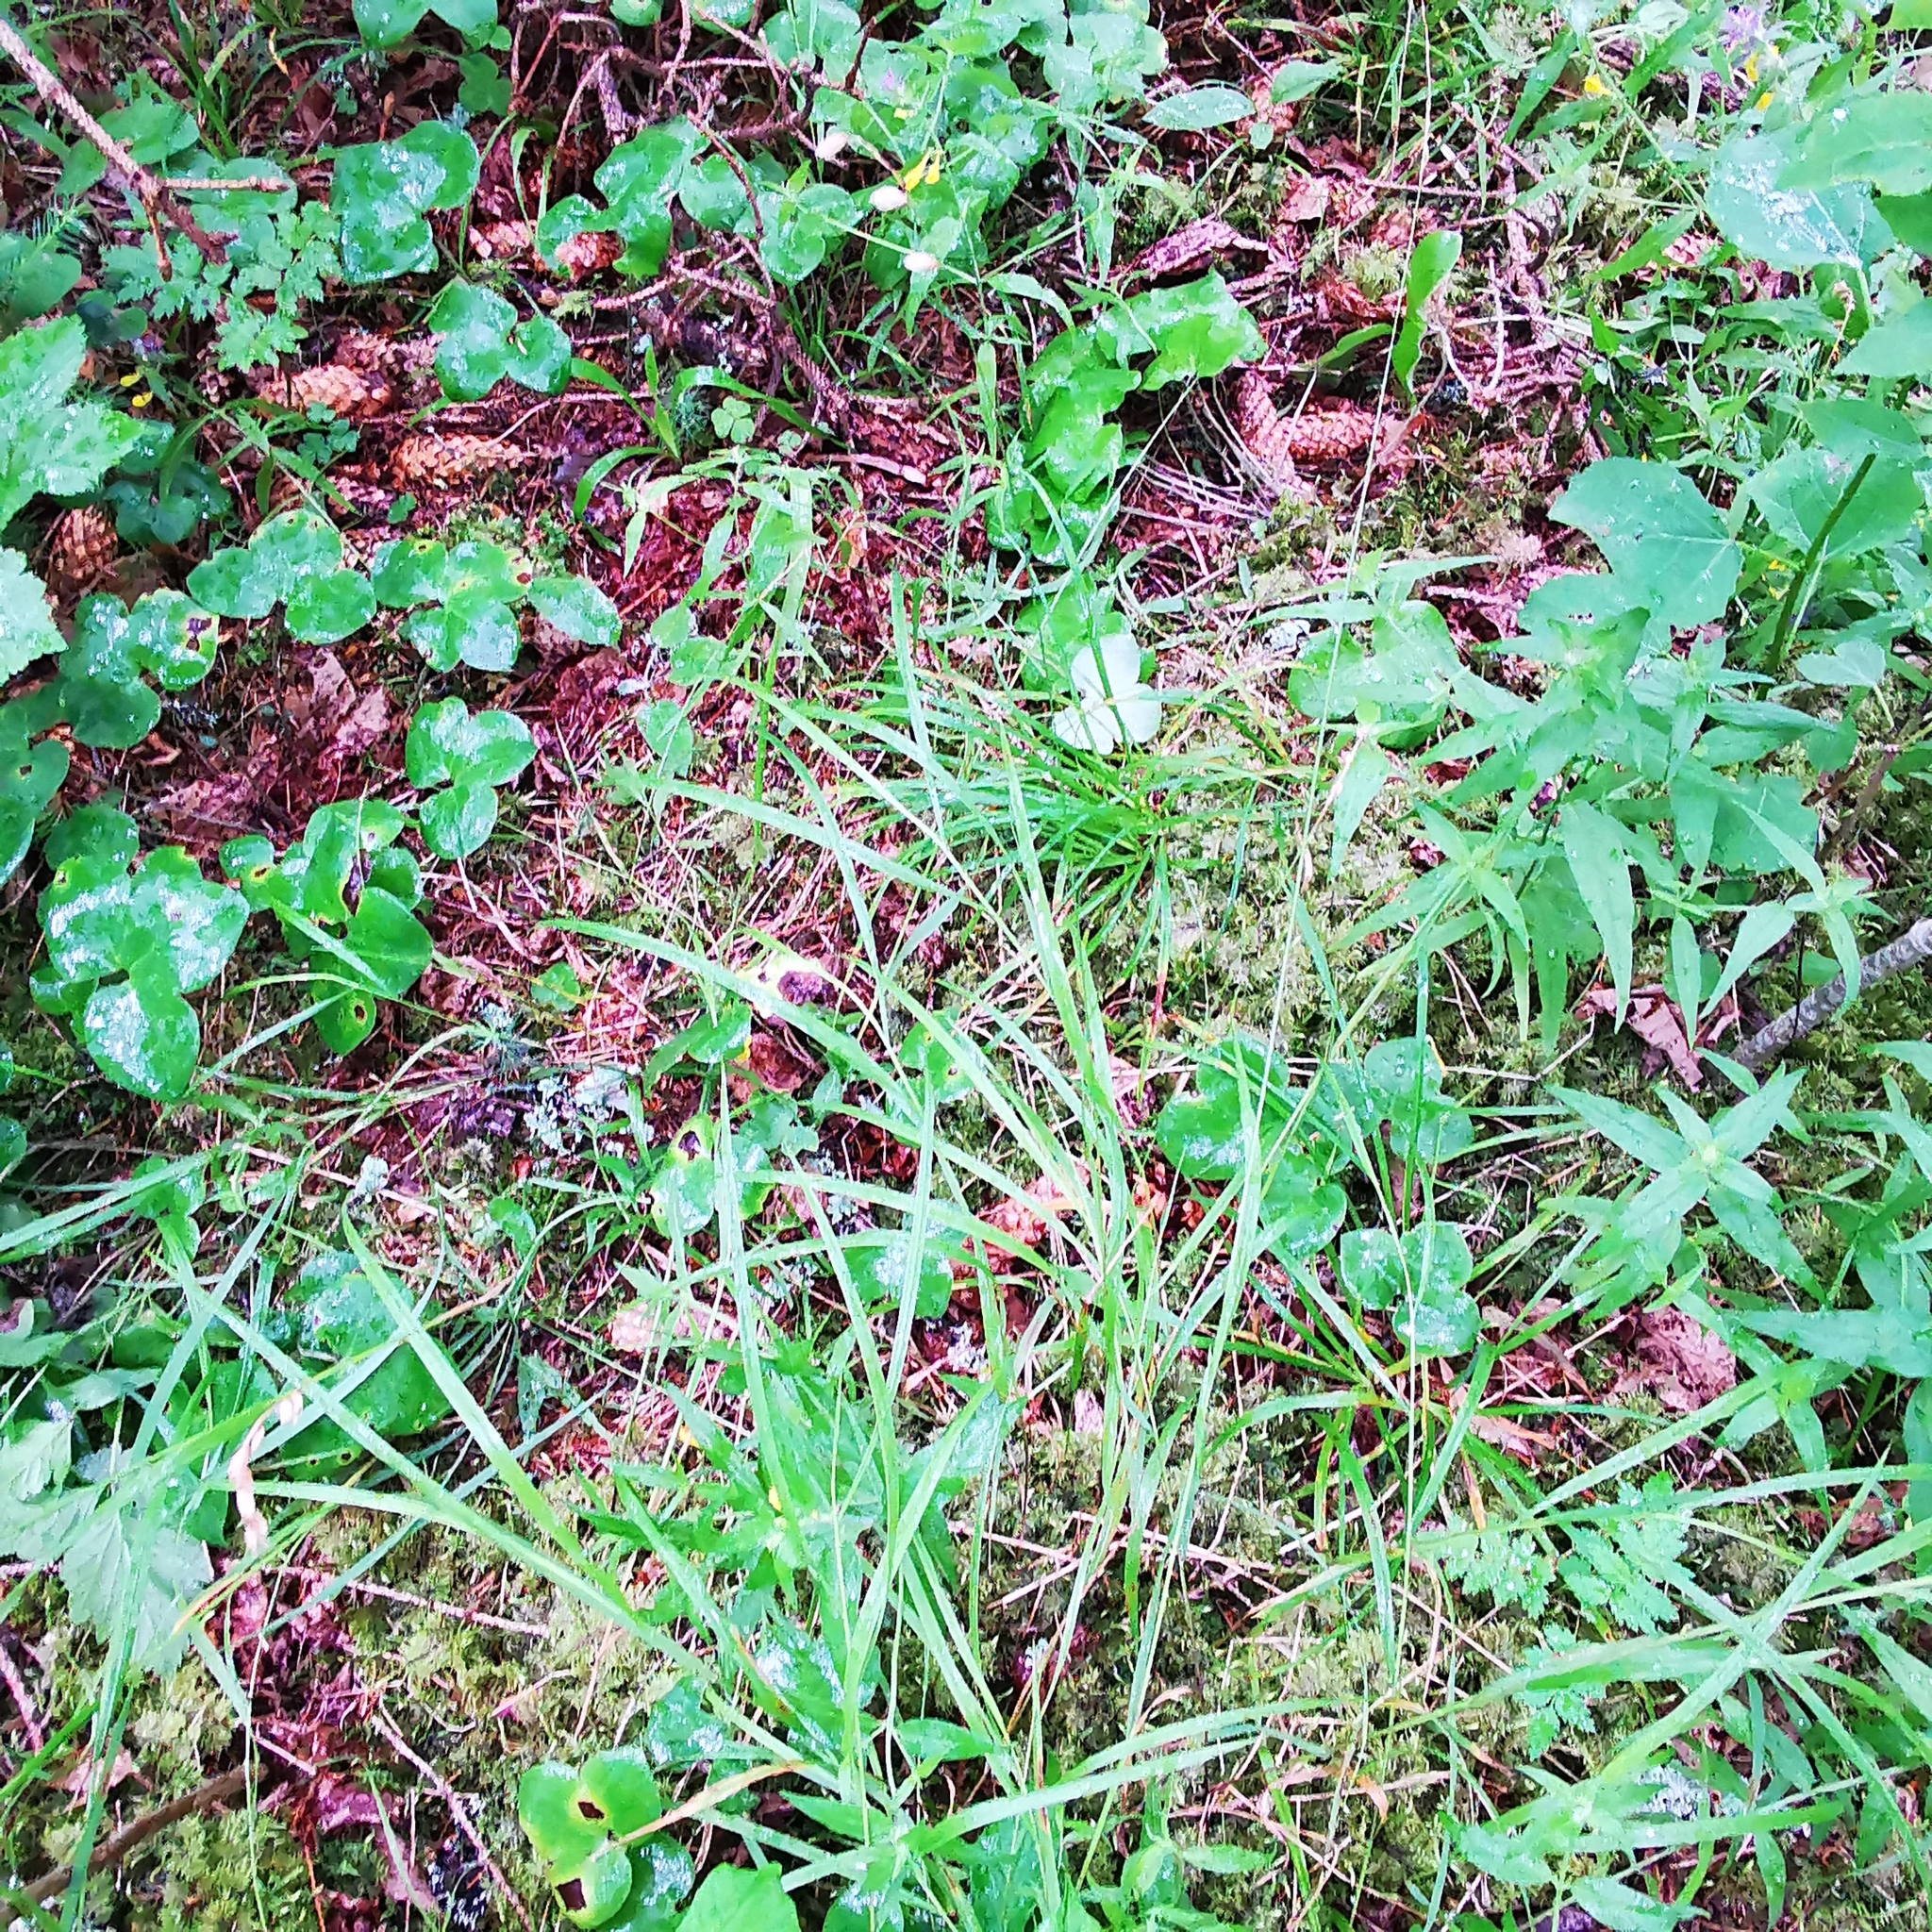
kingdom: Plantae
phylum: Tracheophyta
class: Liliopsida
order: Poales
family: Poaceae
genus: Melica
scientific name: Melica nutans
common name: Mountain melick
